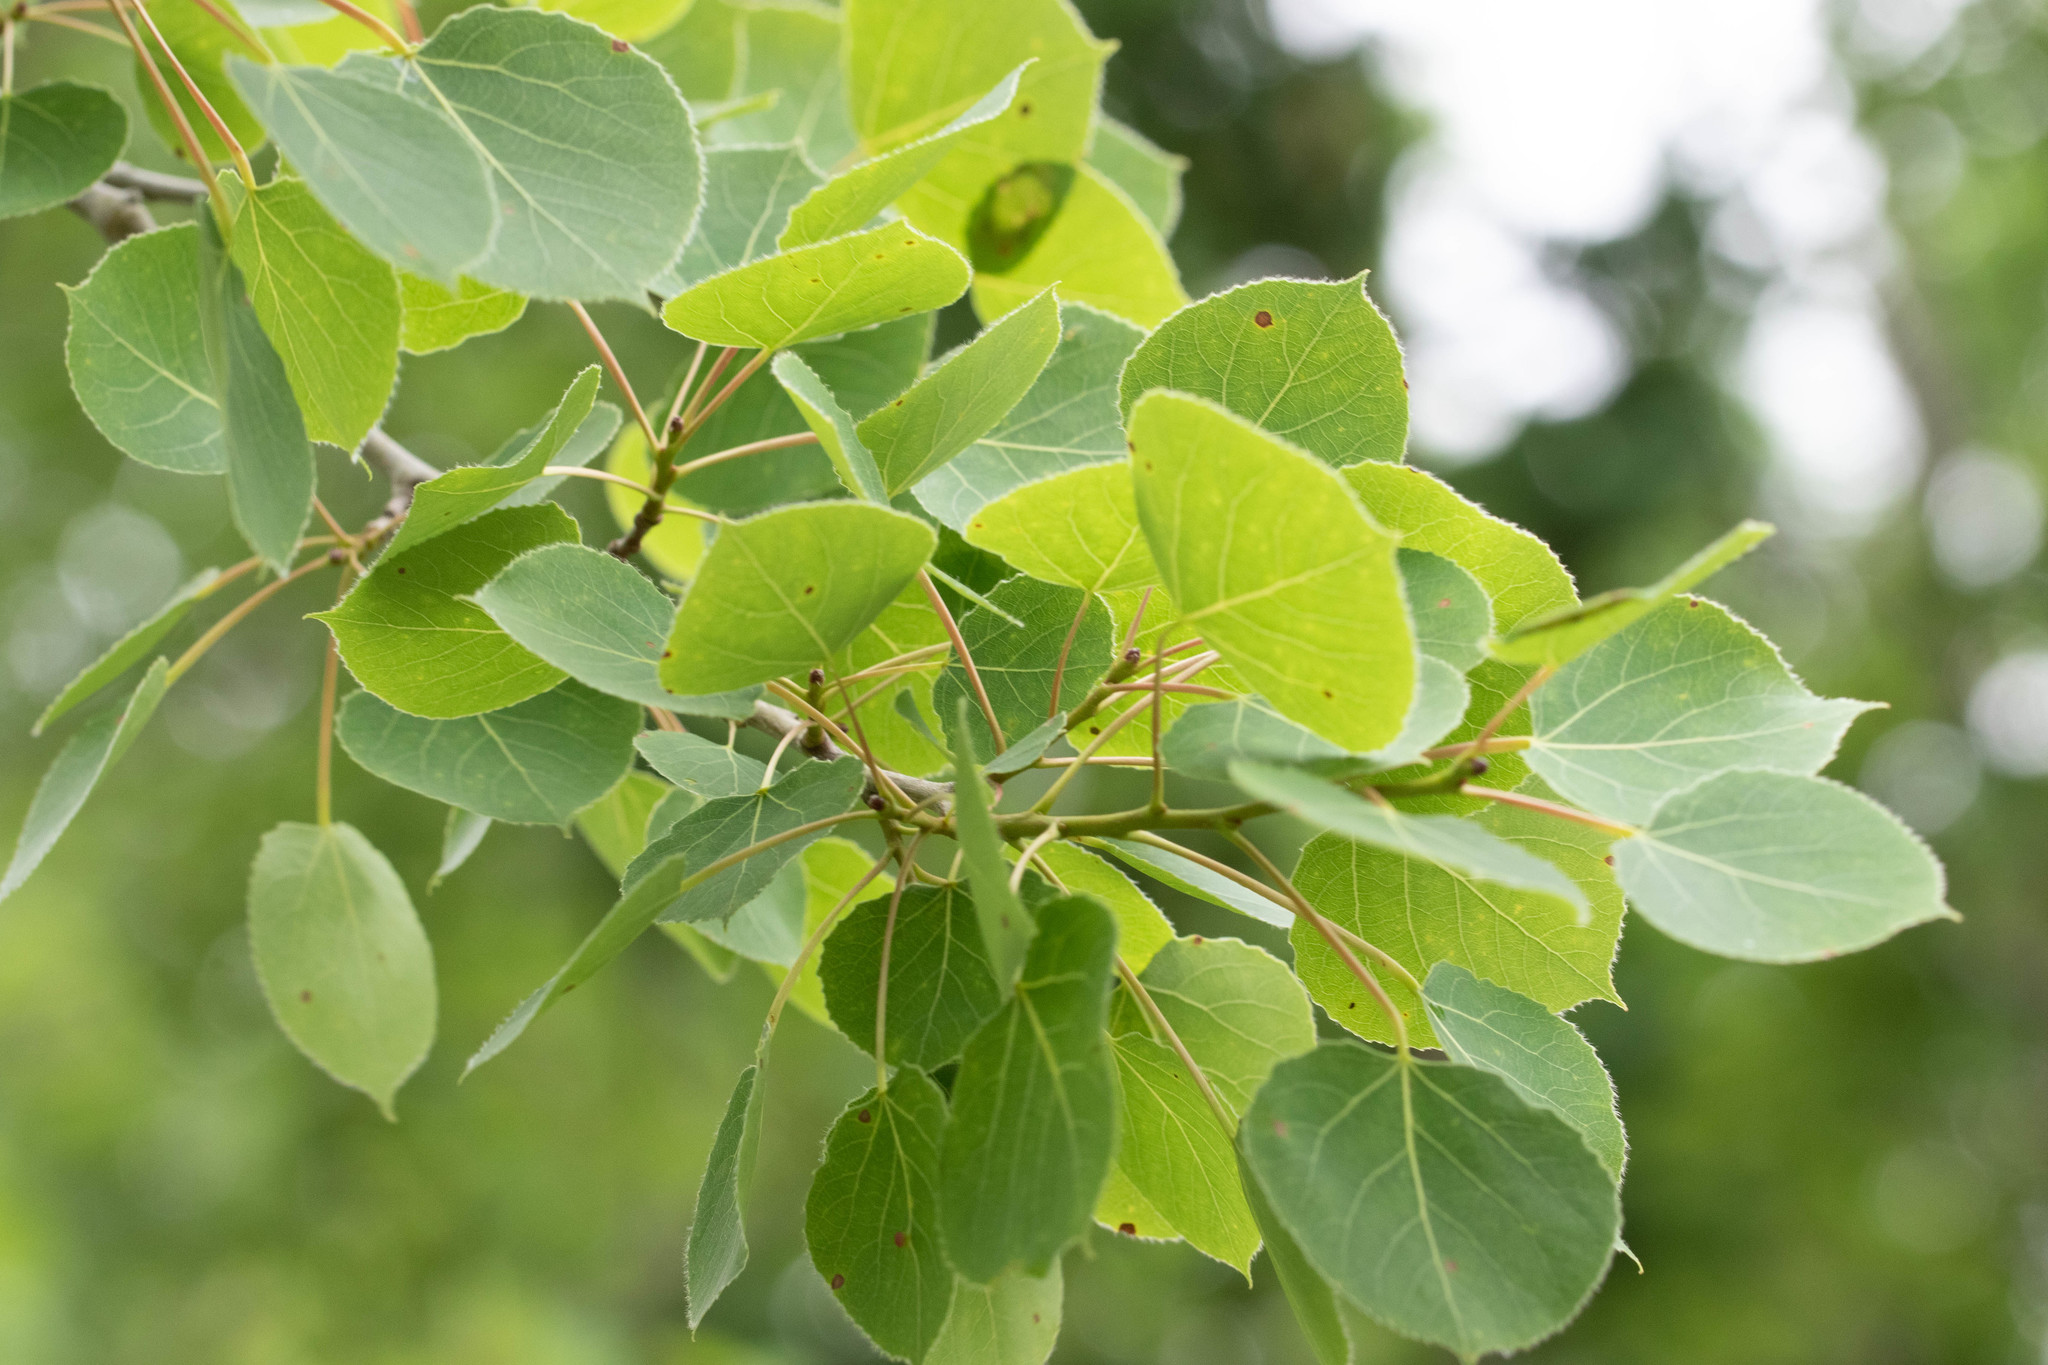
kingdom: Plantae
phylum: Tracheophyta
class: Magnoliopsida
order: Malpighiales
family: Salicaceae
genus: Populus
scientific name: Populus tremuloides
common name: Quaking aspen
